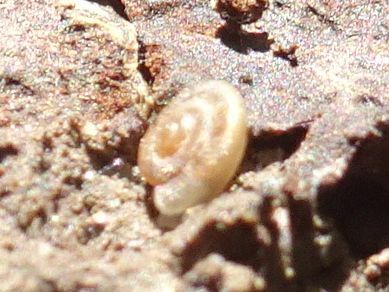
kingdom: Animalia
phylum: Mollusca
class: Gastropoda
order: Stylommatophora
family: Discidae
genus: Discus
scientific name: Discus rotundatus
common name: Rounded snail
